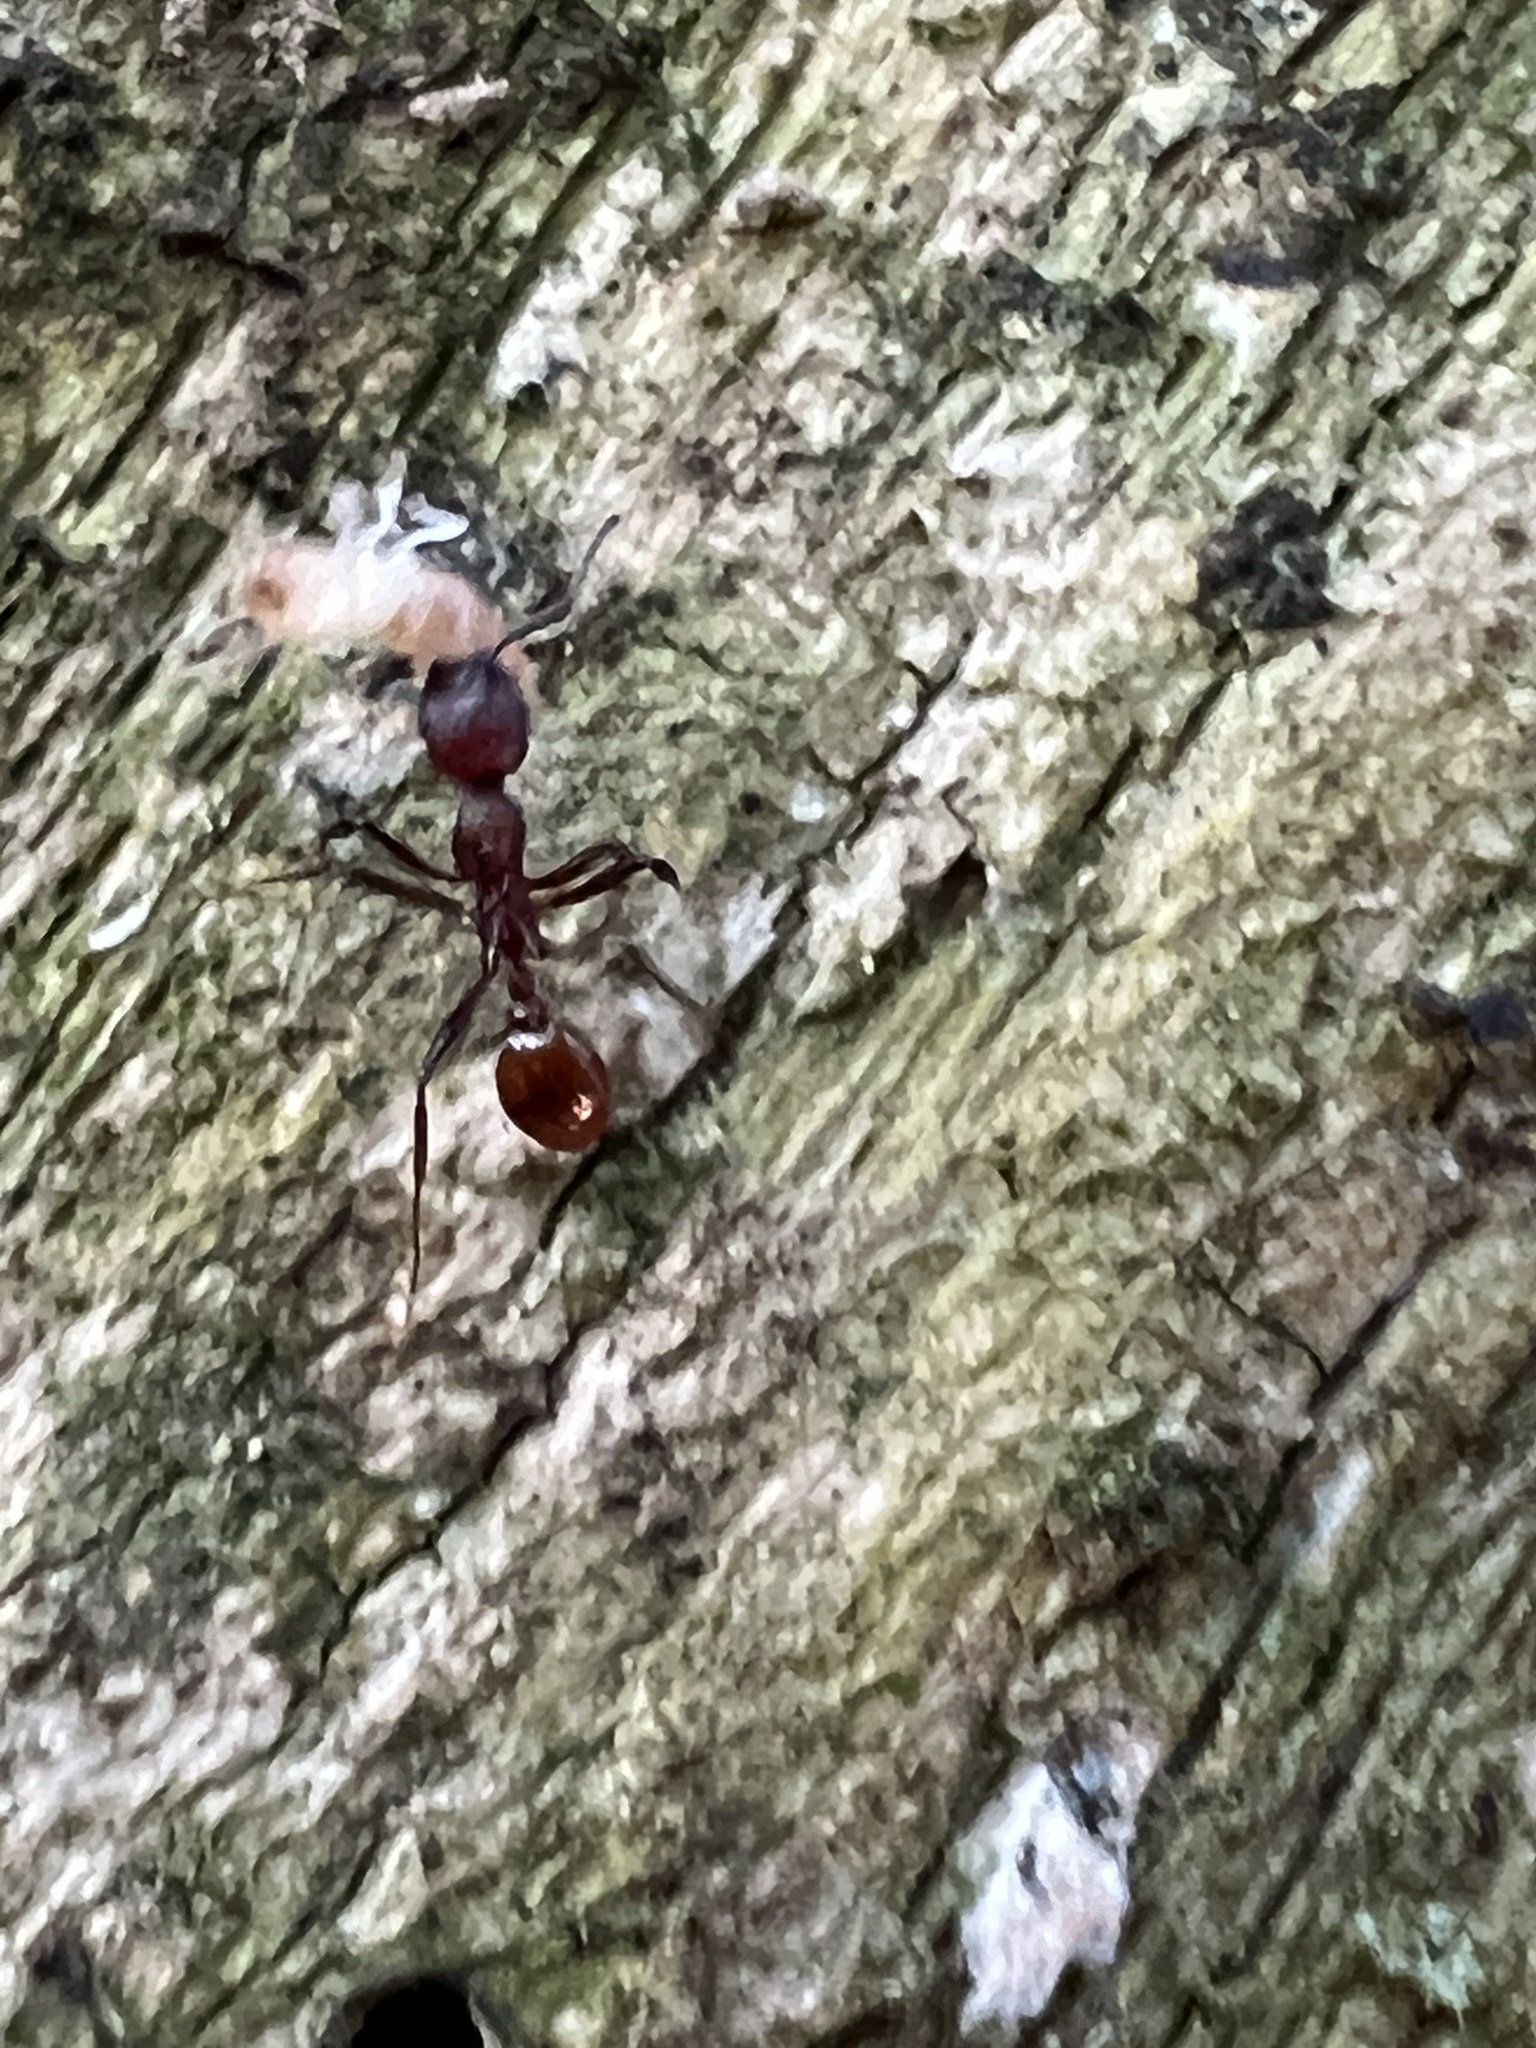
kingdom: Animalia
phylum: Arthropoda
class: Insecta
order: Hymenoptera
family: Formicidae
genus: Aphaenogaster
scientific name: Aphaenogaster tennesseensis
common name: Tennessee thread-waisted ant
